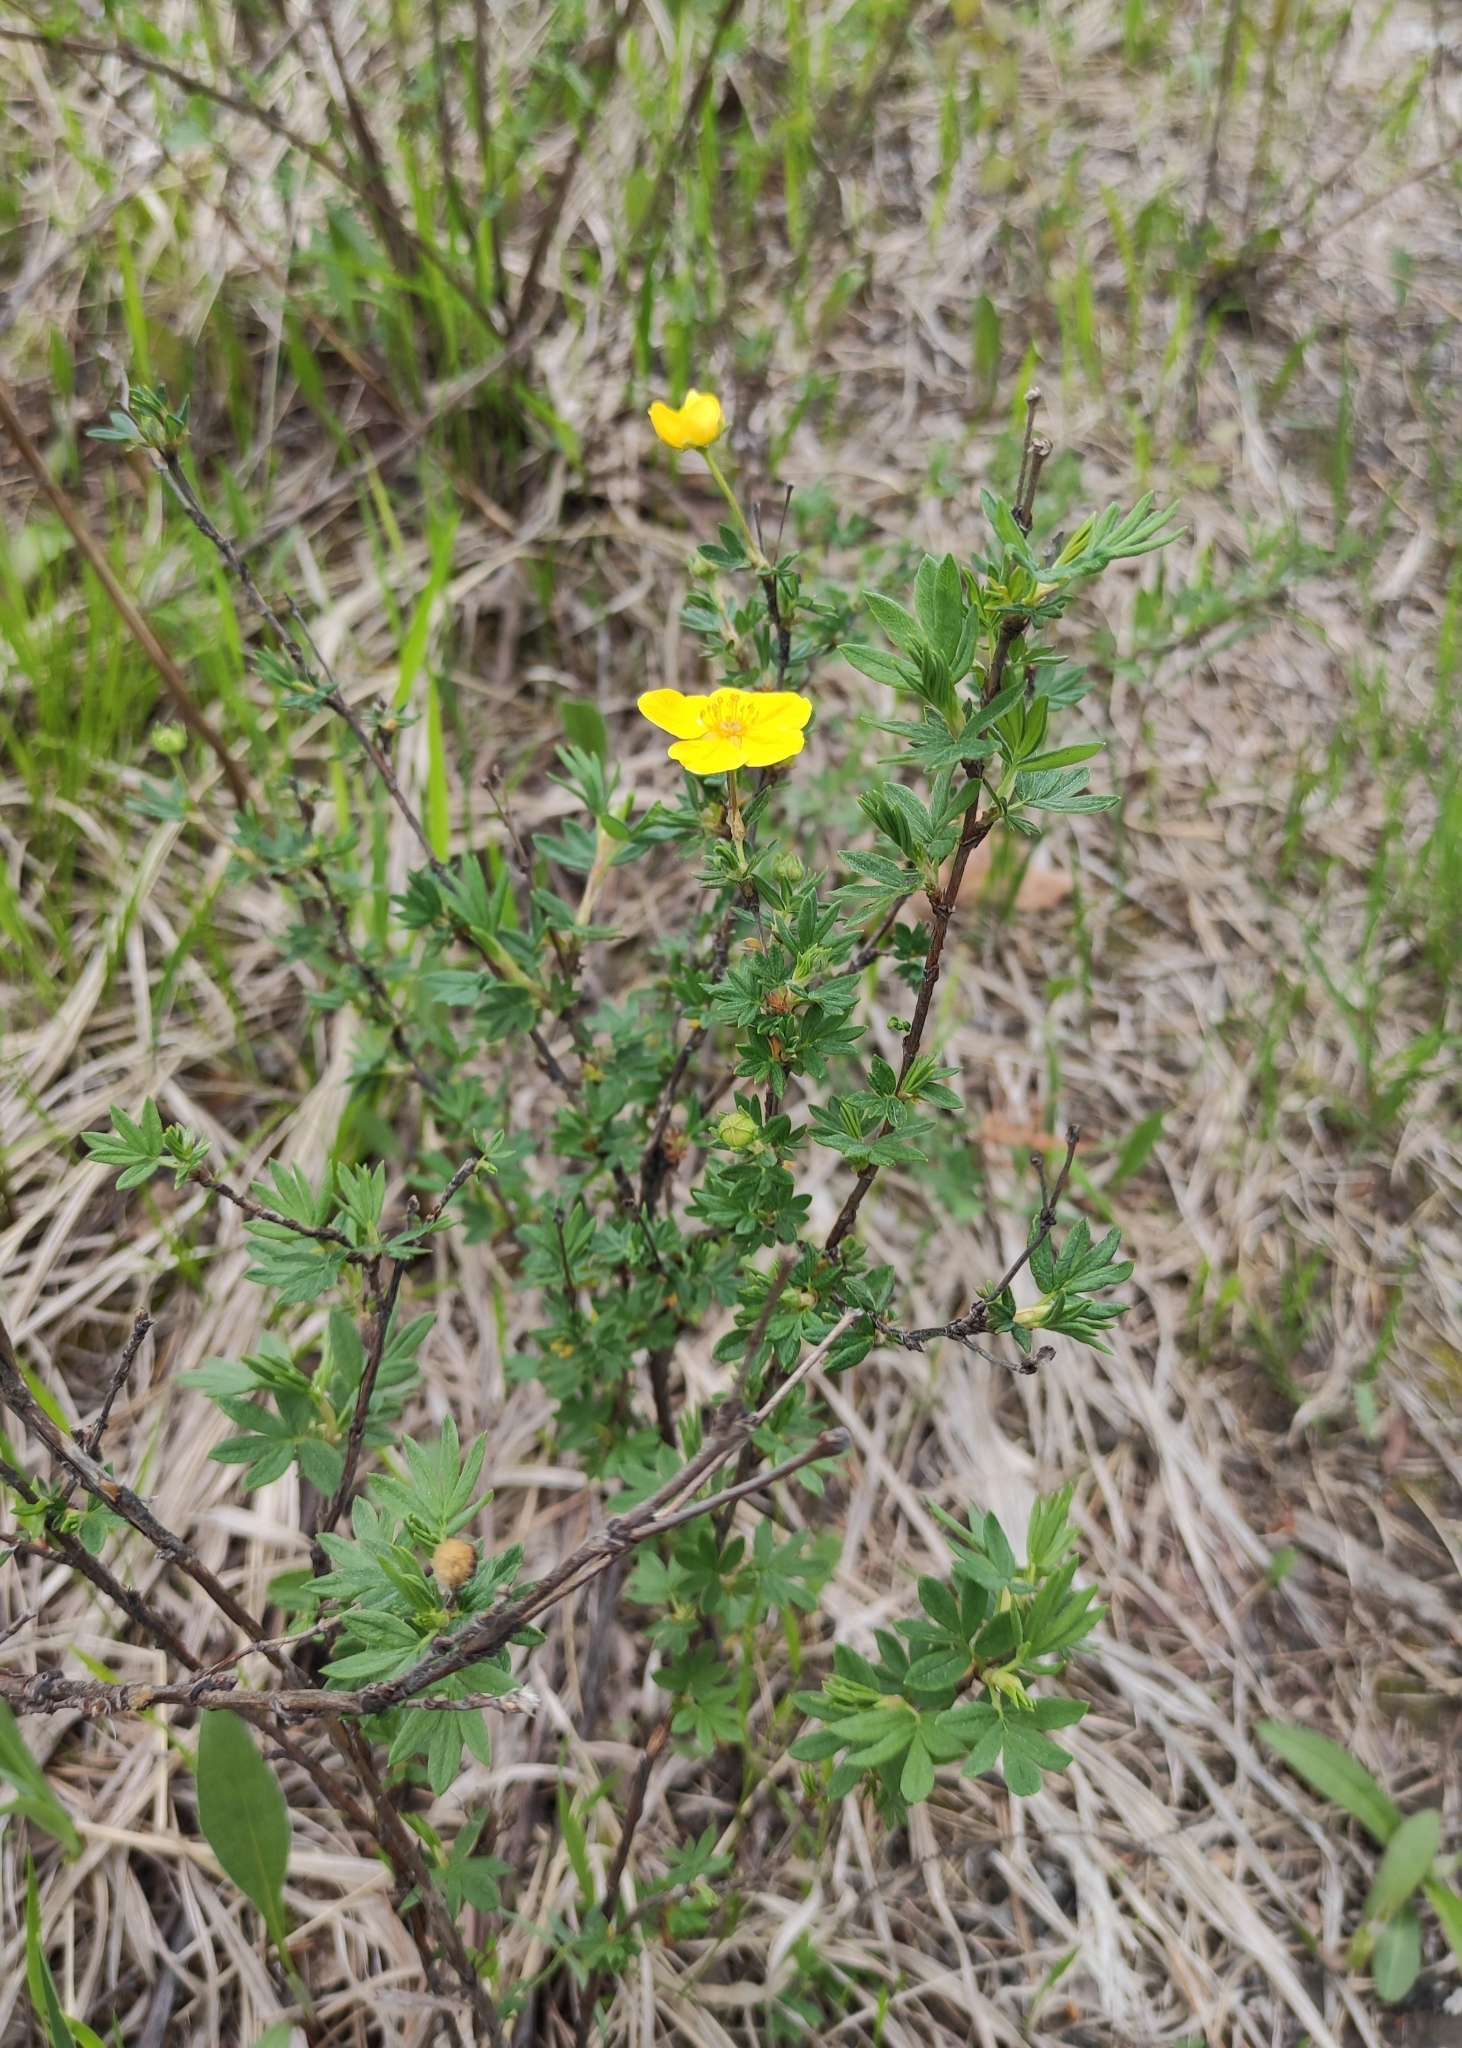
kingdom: Plantae
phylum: Tracheophyta
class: Magnoliopsida
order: Rosales
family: Rosaceae
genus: Dasiphora
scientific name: Dasiphora fruticosa
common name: Shrubby cinquefoil
